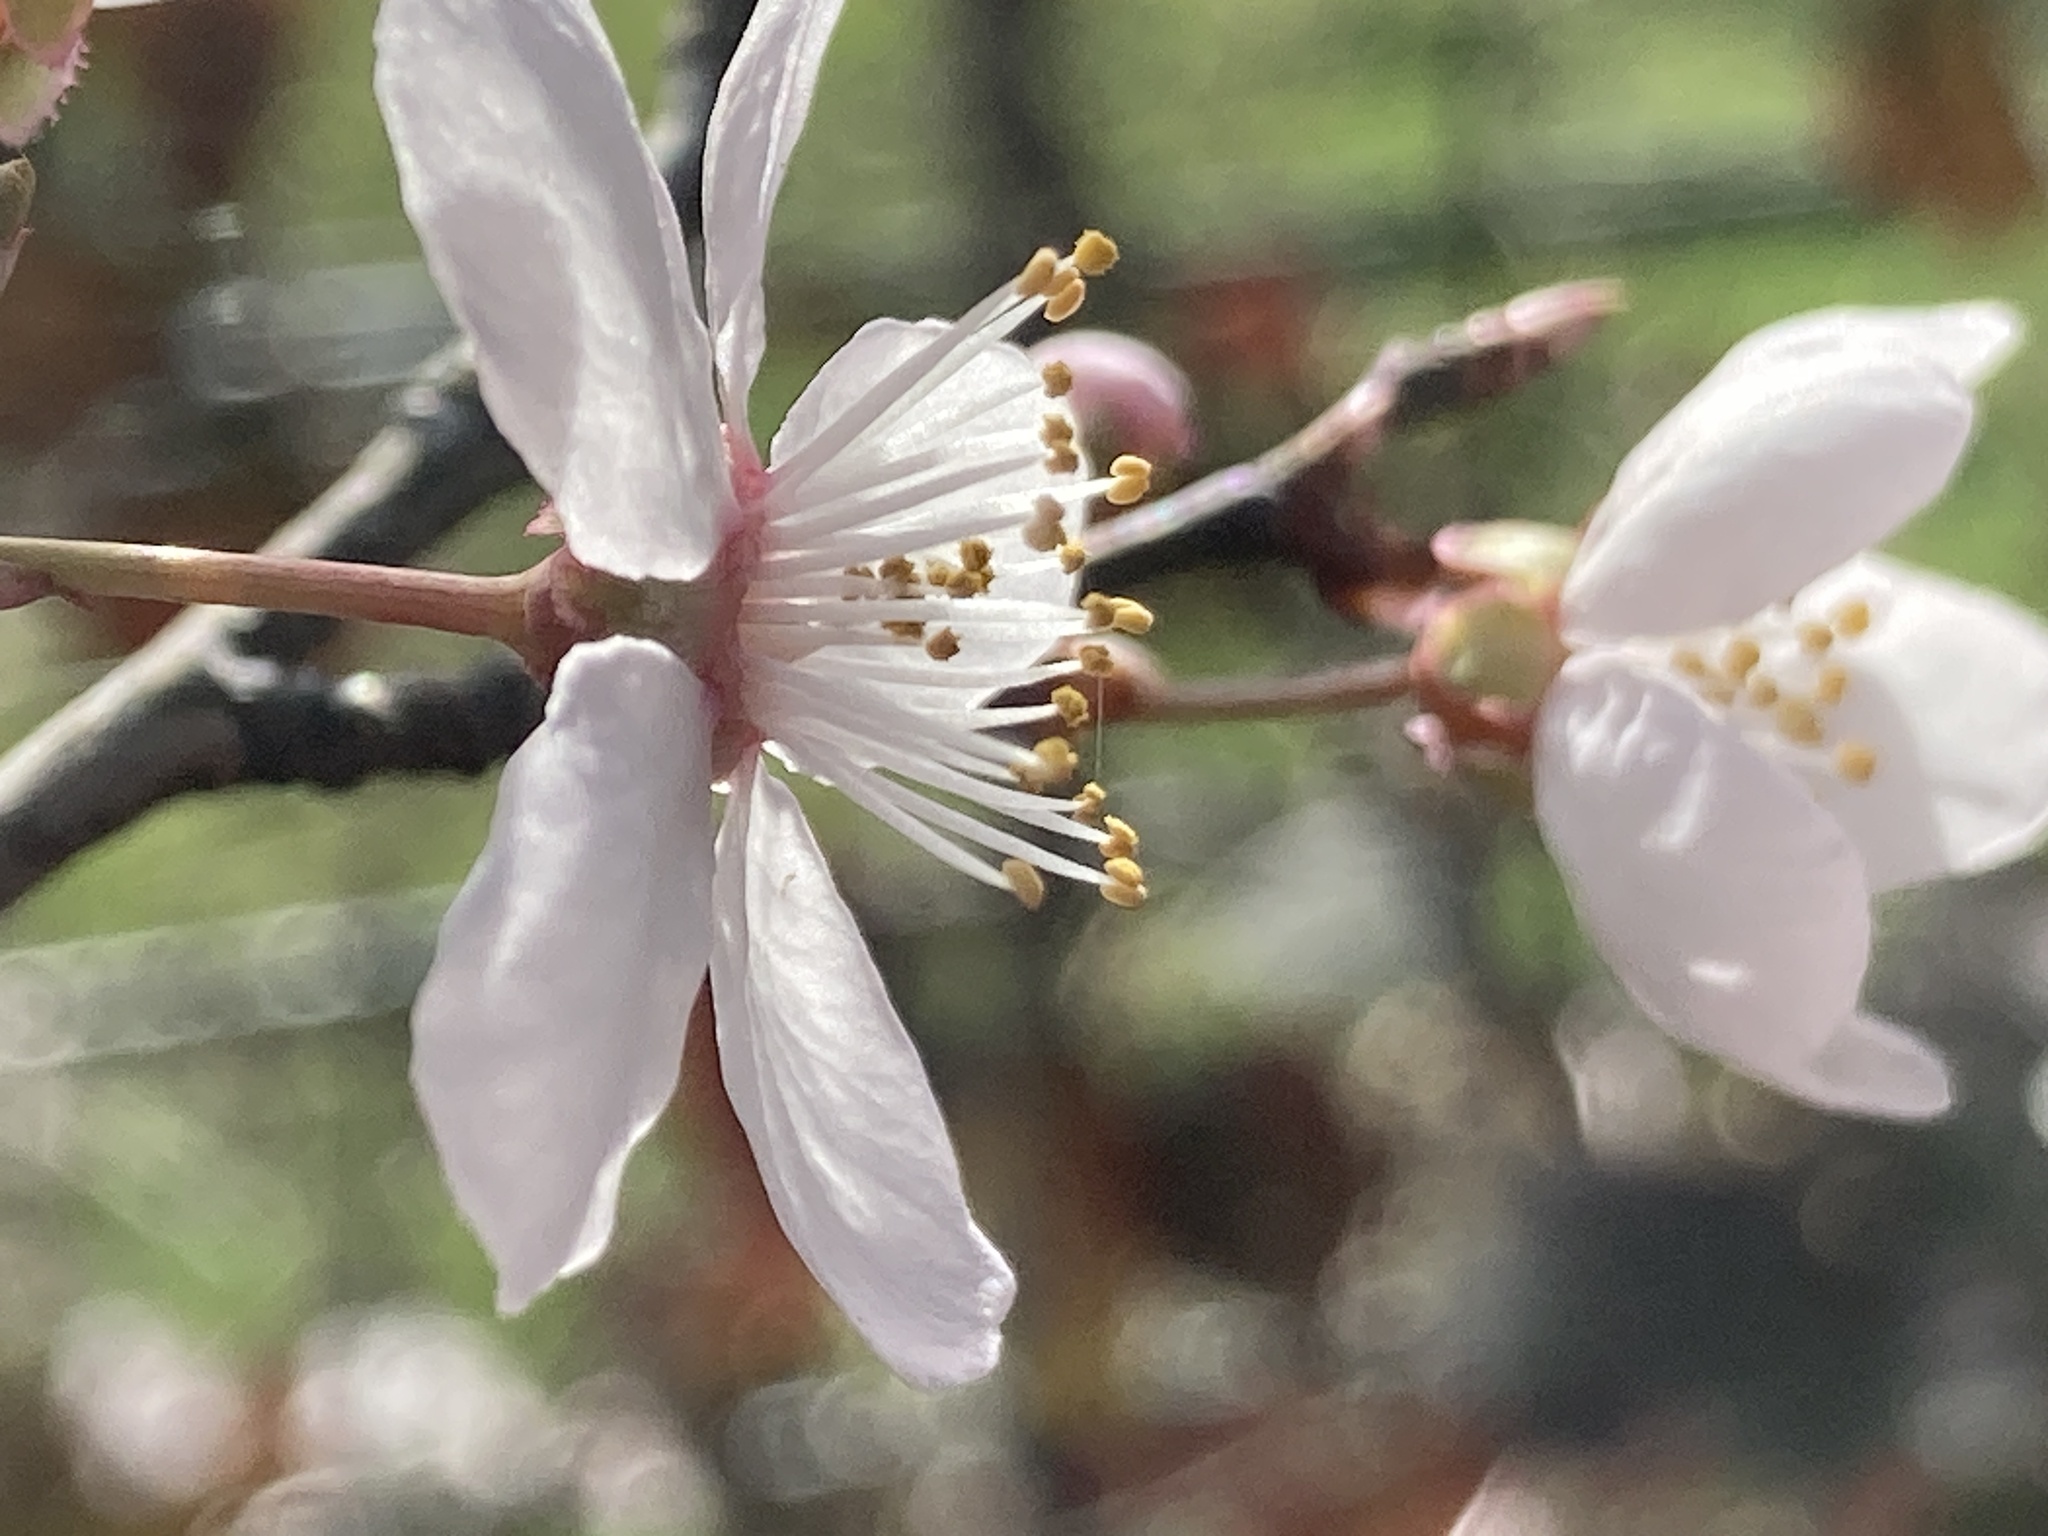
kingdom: Plantae
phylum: Tracheophyta
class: Magnoliopsida
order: Rosales
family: Rosaceae
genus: Prunus
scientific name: Prunus cerasifera
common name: Cherry plum
